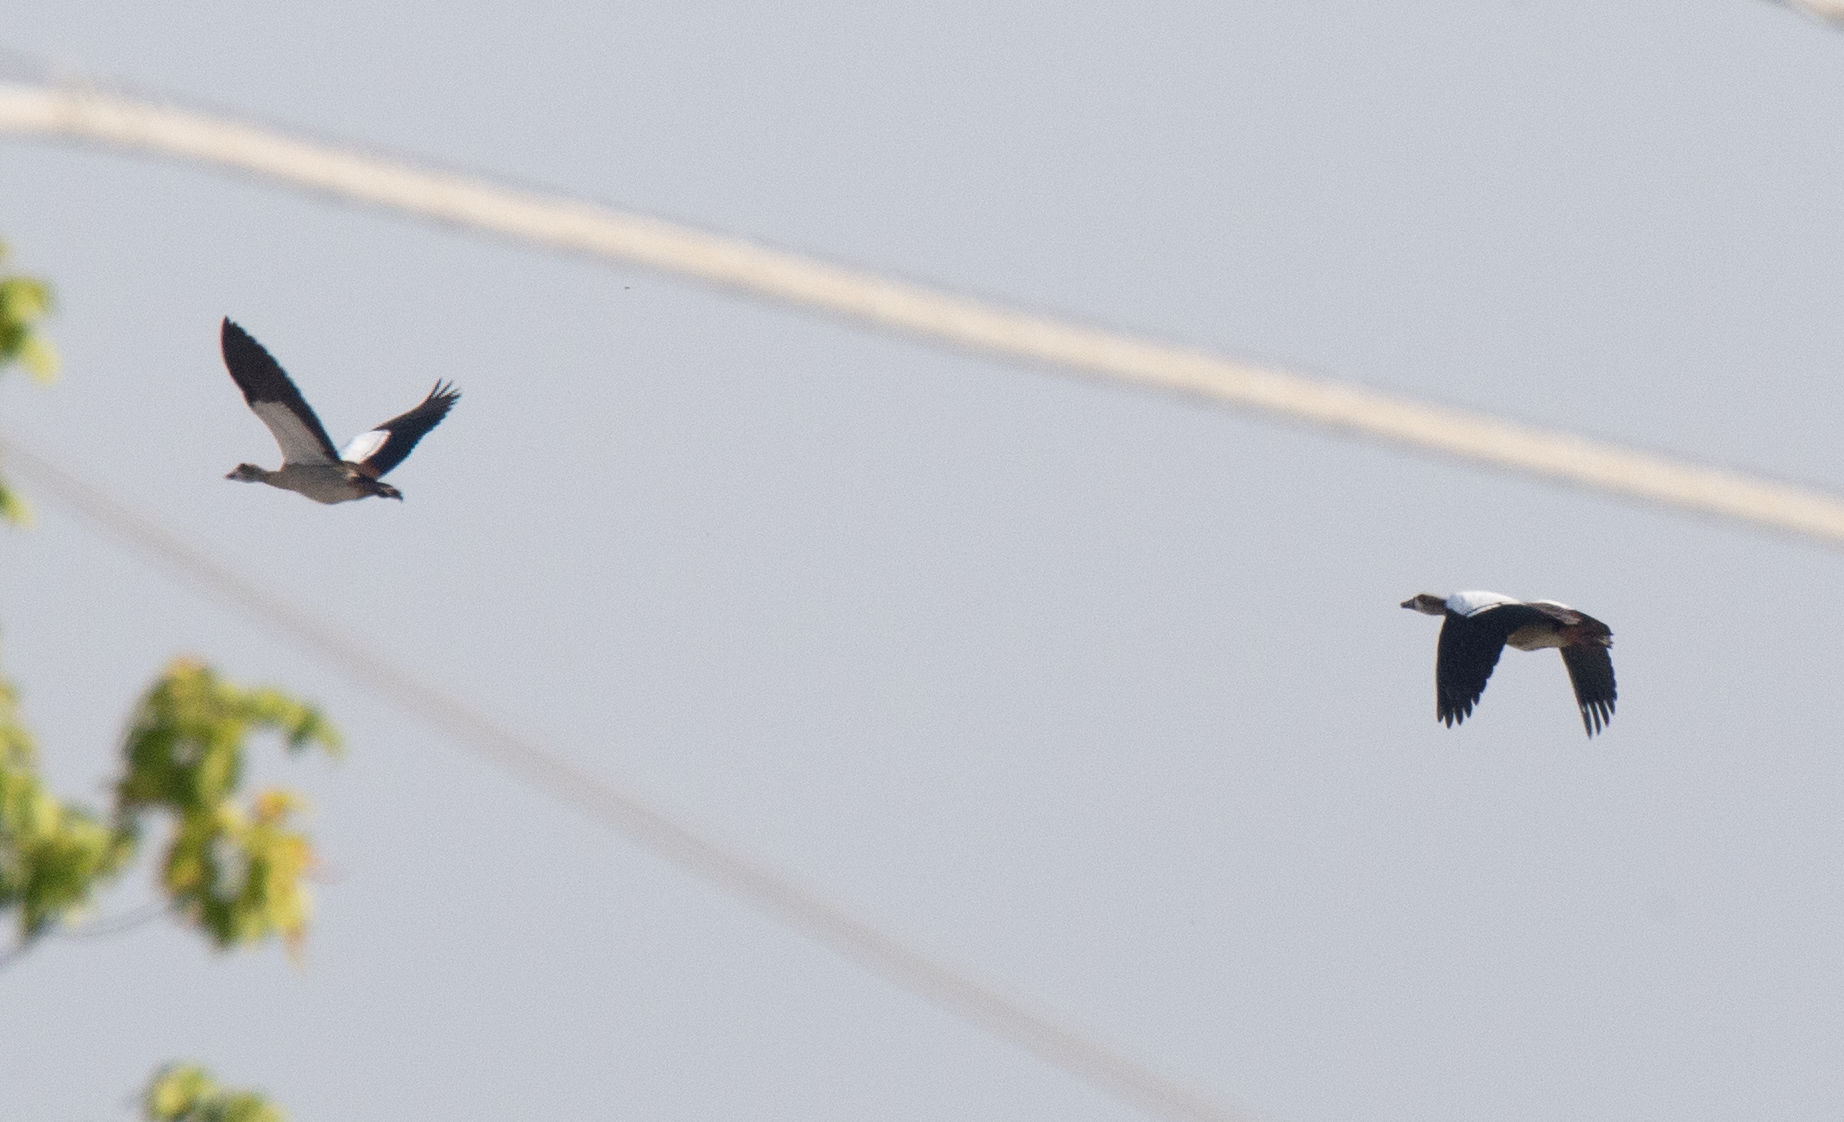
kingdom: Animalia
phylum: Chordata
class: Aves
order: Anseriformes
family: Anatidae
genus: Alopochen
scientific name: Alopochen aegyptiaca
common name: Egyptian goose
